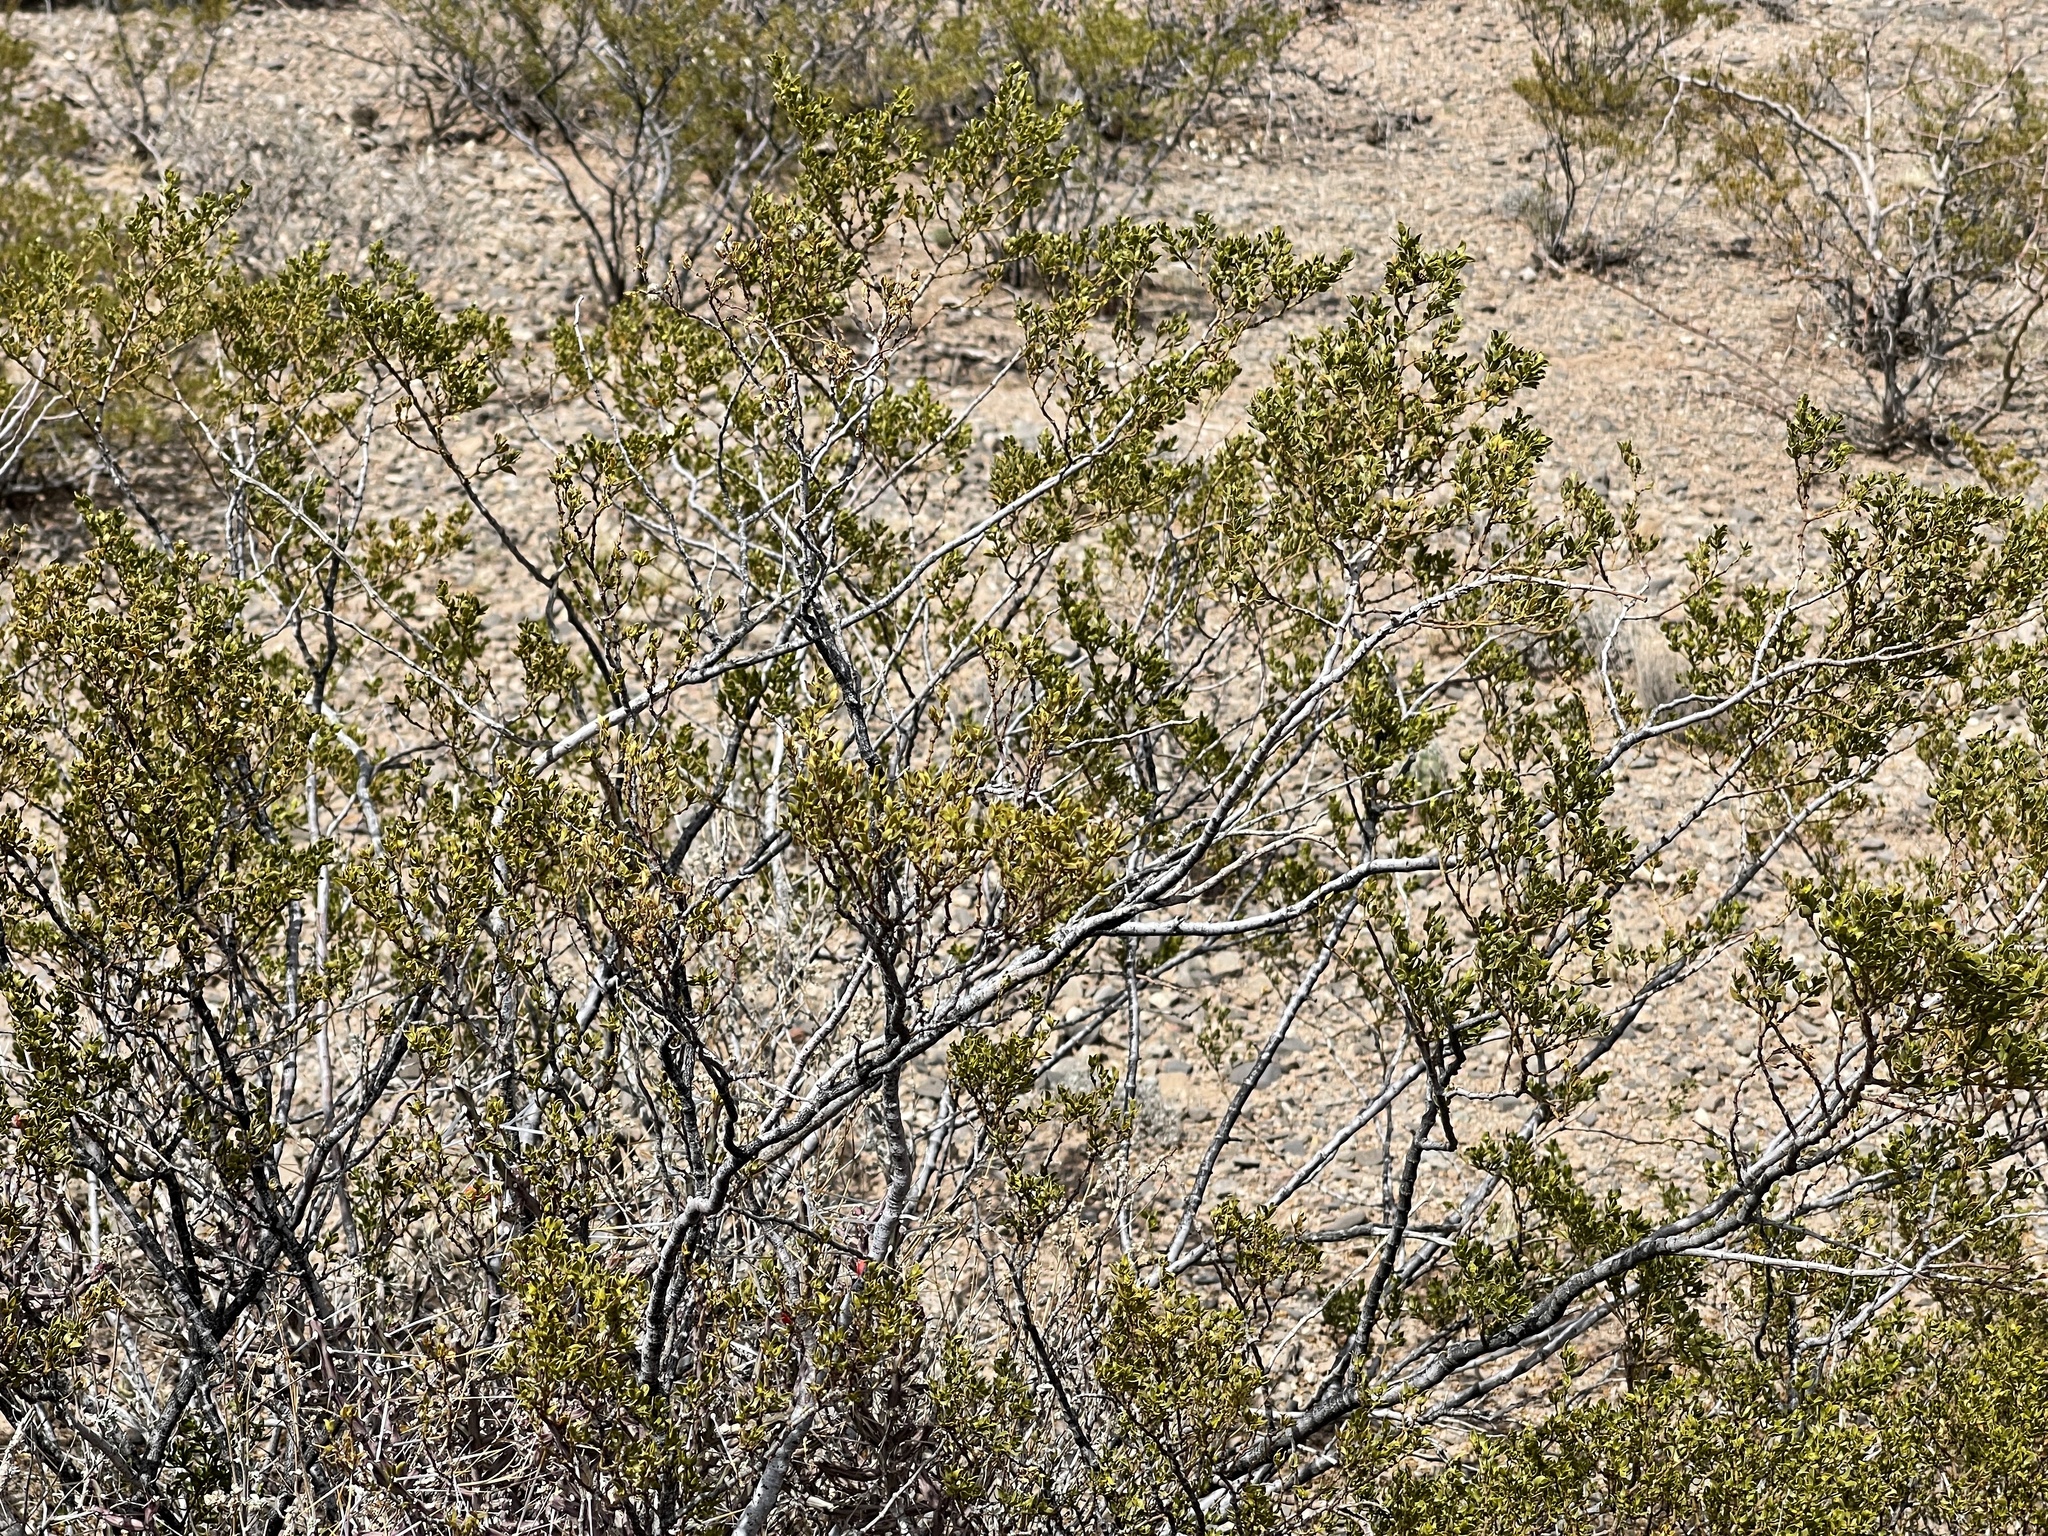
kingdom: Plantae
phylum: Tracheophyta
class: Magnoliopsida
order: Zygophyllales
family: Zygophyllaceae
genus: Larrea
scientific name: Larrea tridentata
